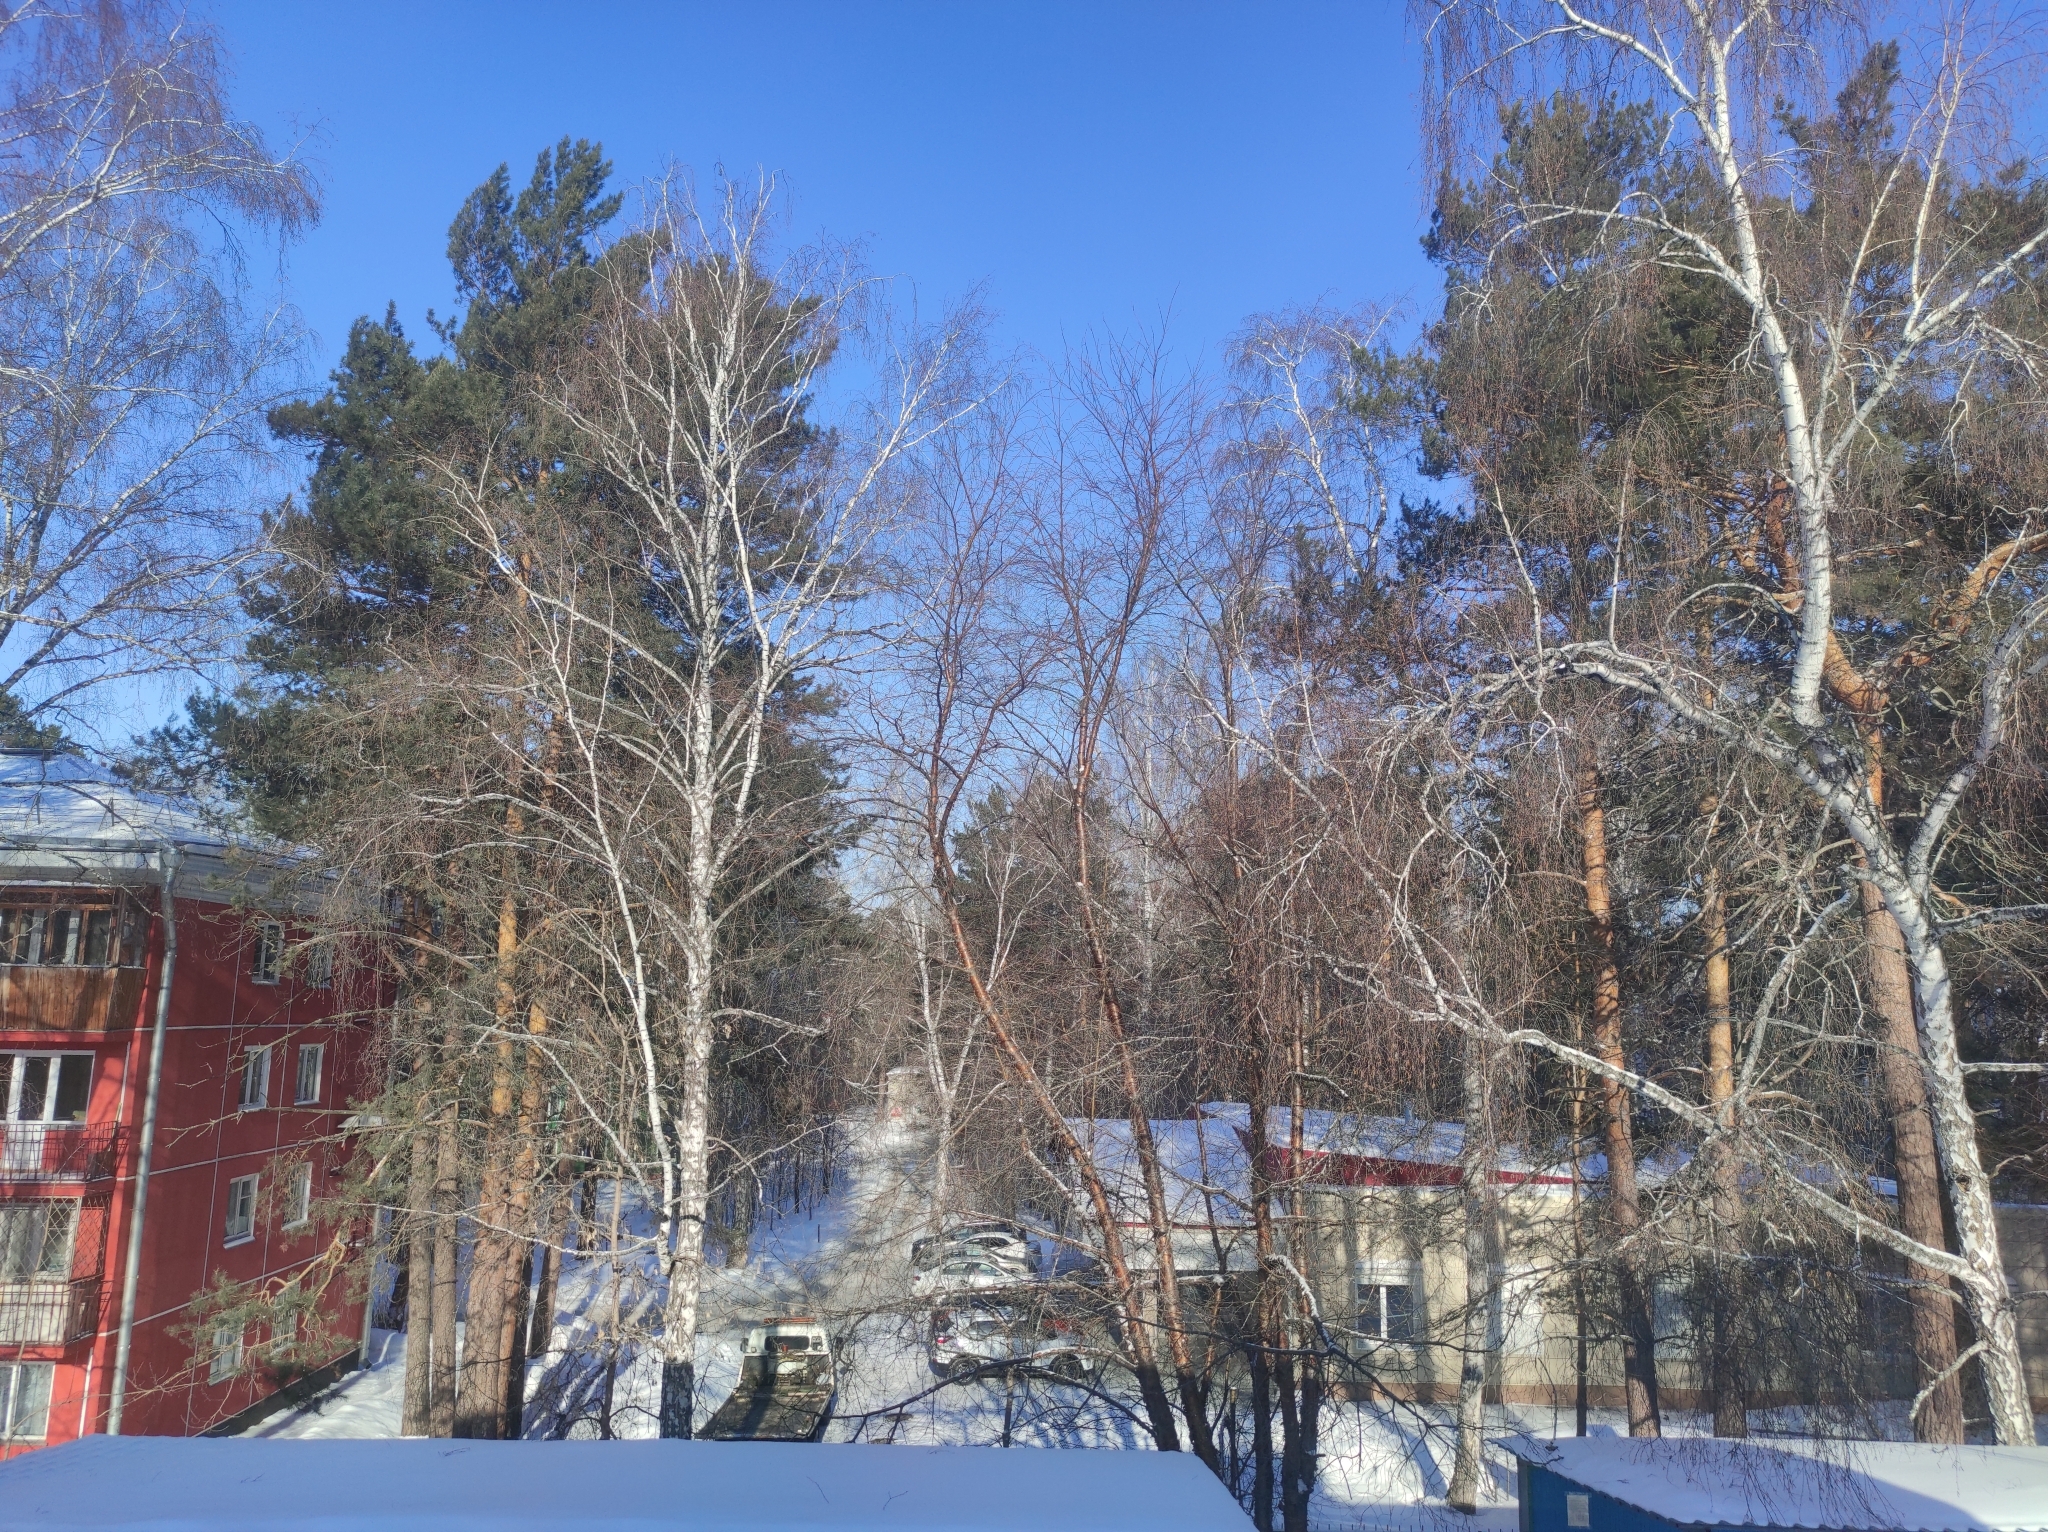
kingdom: Plantae
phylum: Tracheophyta
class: Pinopsida
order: Pinales
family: Pinaceae
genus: Pinus
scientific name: Pinus sylvestris
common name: Scots pine
